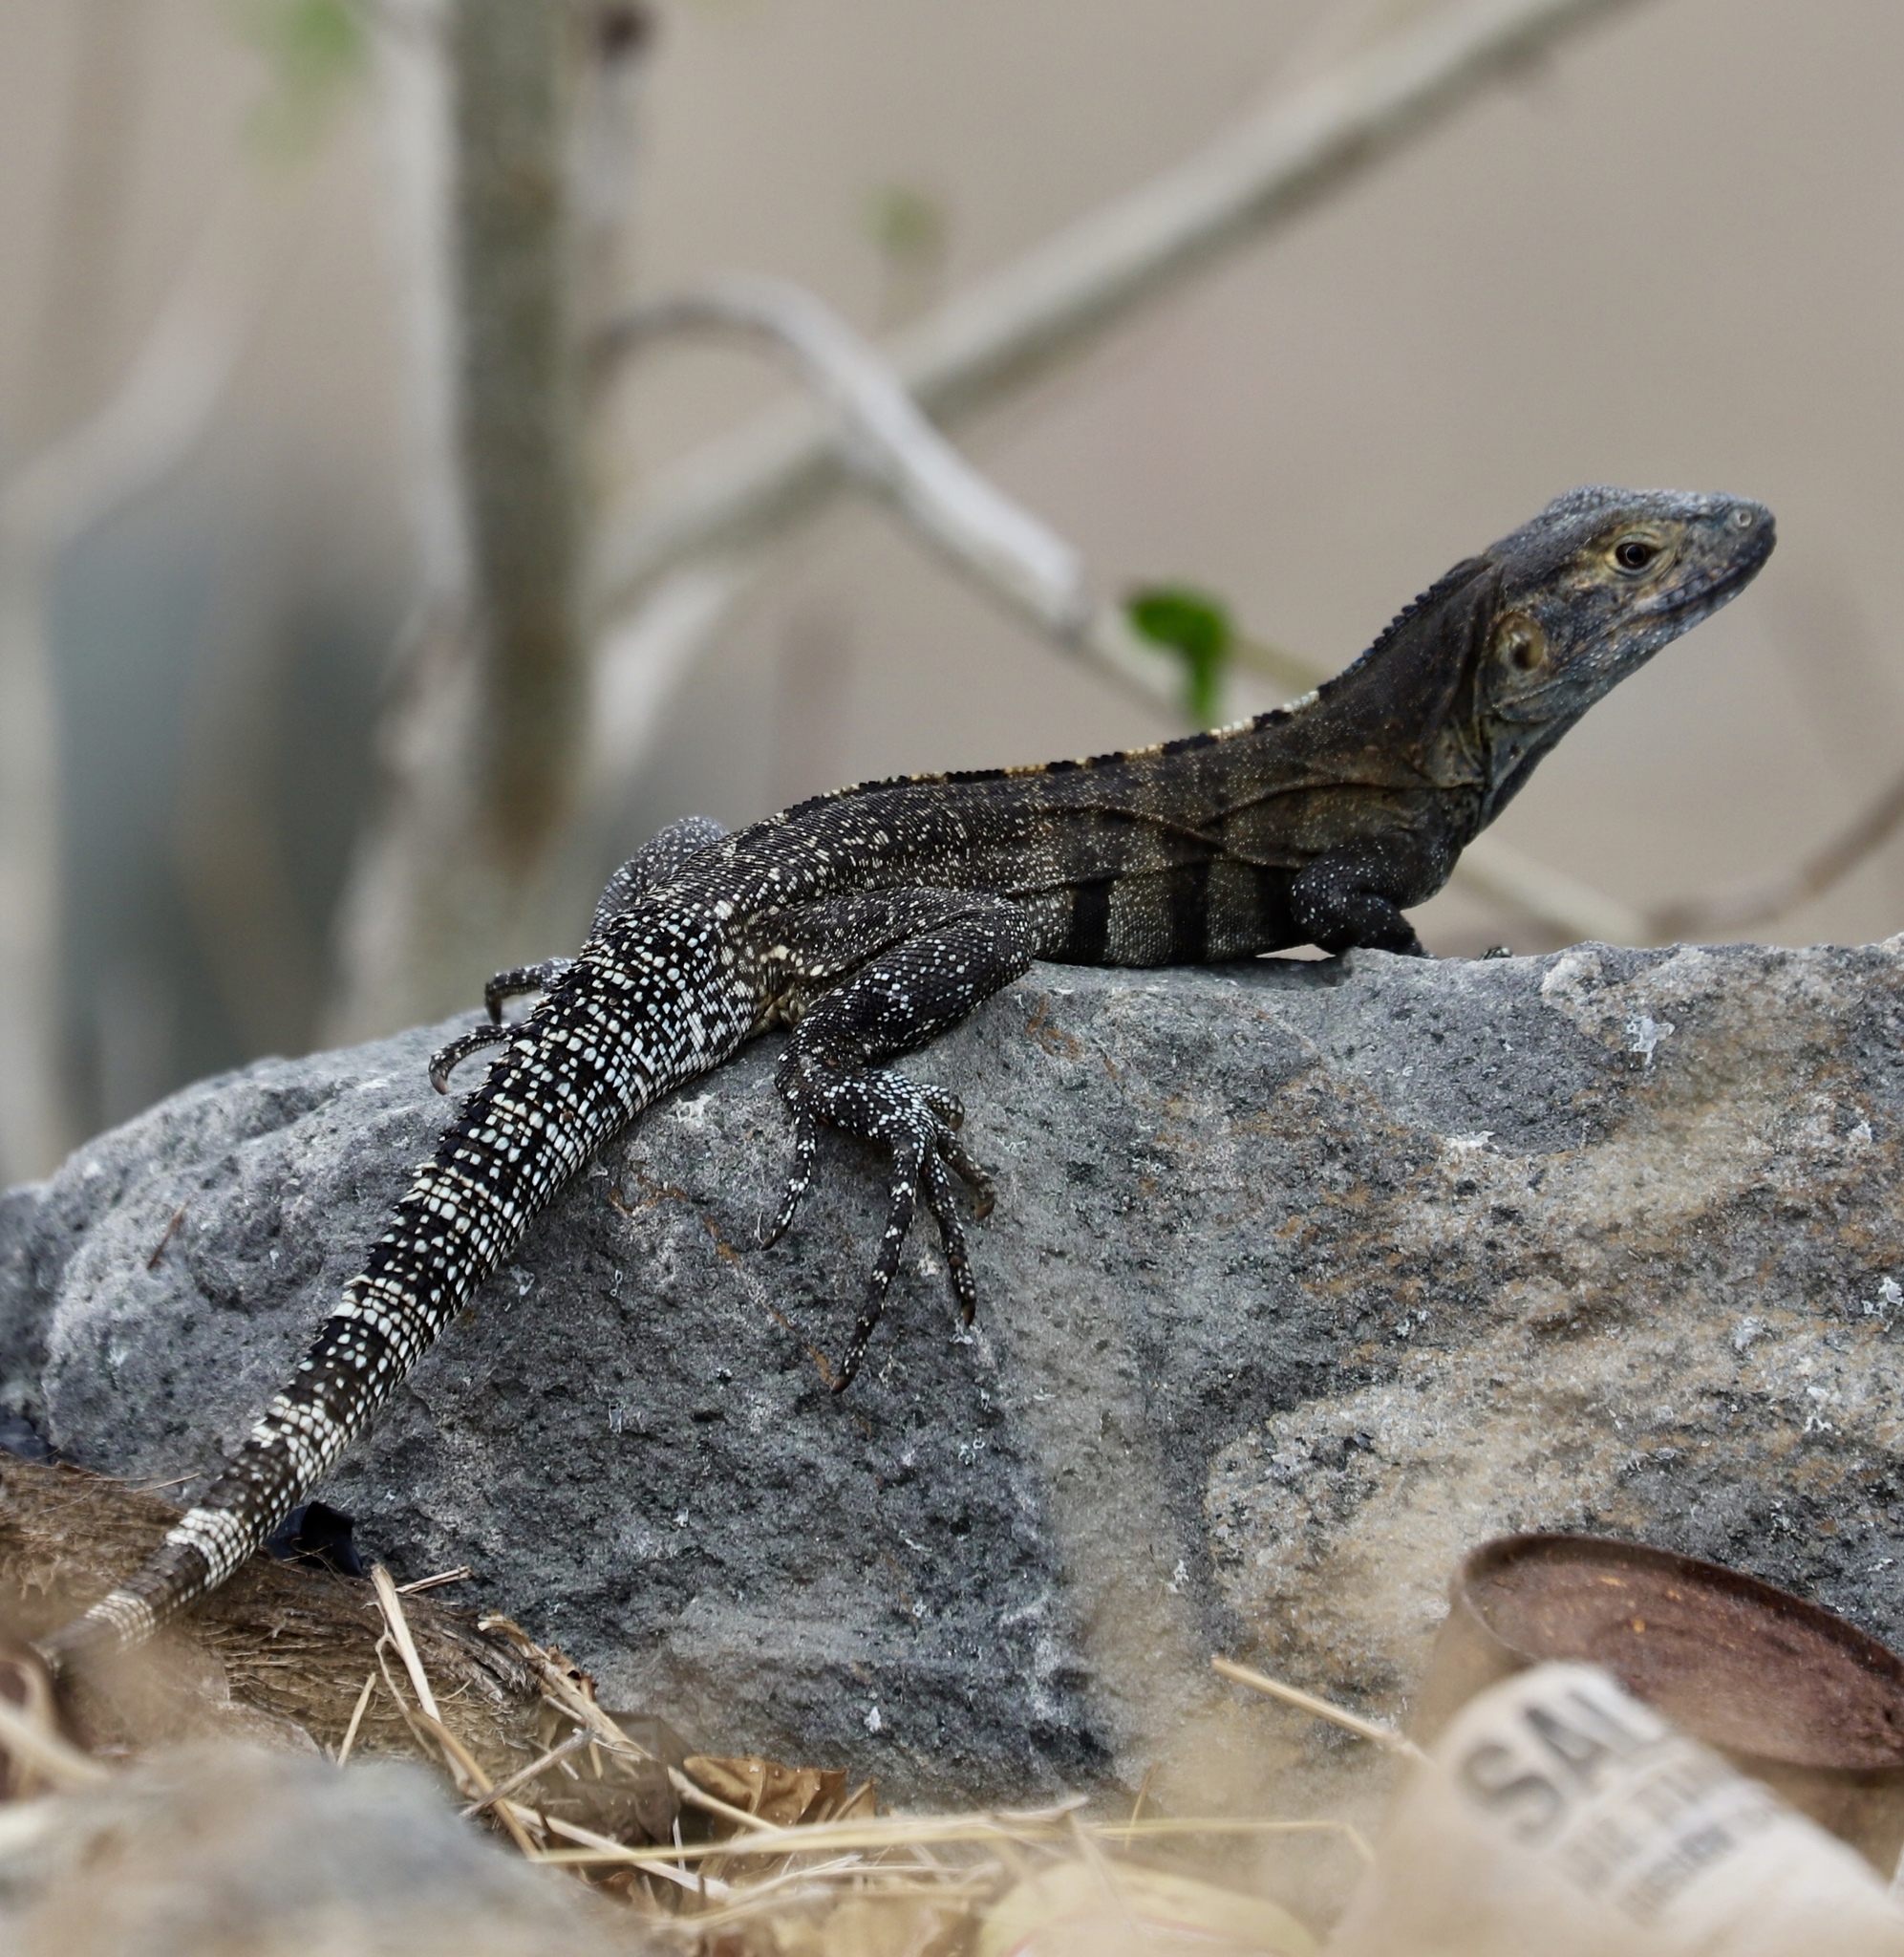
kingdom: Animalia
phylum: Chordata
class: Squamata
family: Iguanidae
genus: Ctenosaura
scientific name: Ctenosaura similis
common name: Black spiny-tailed iguana
